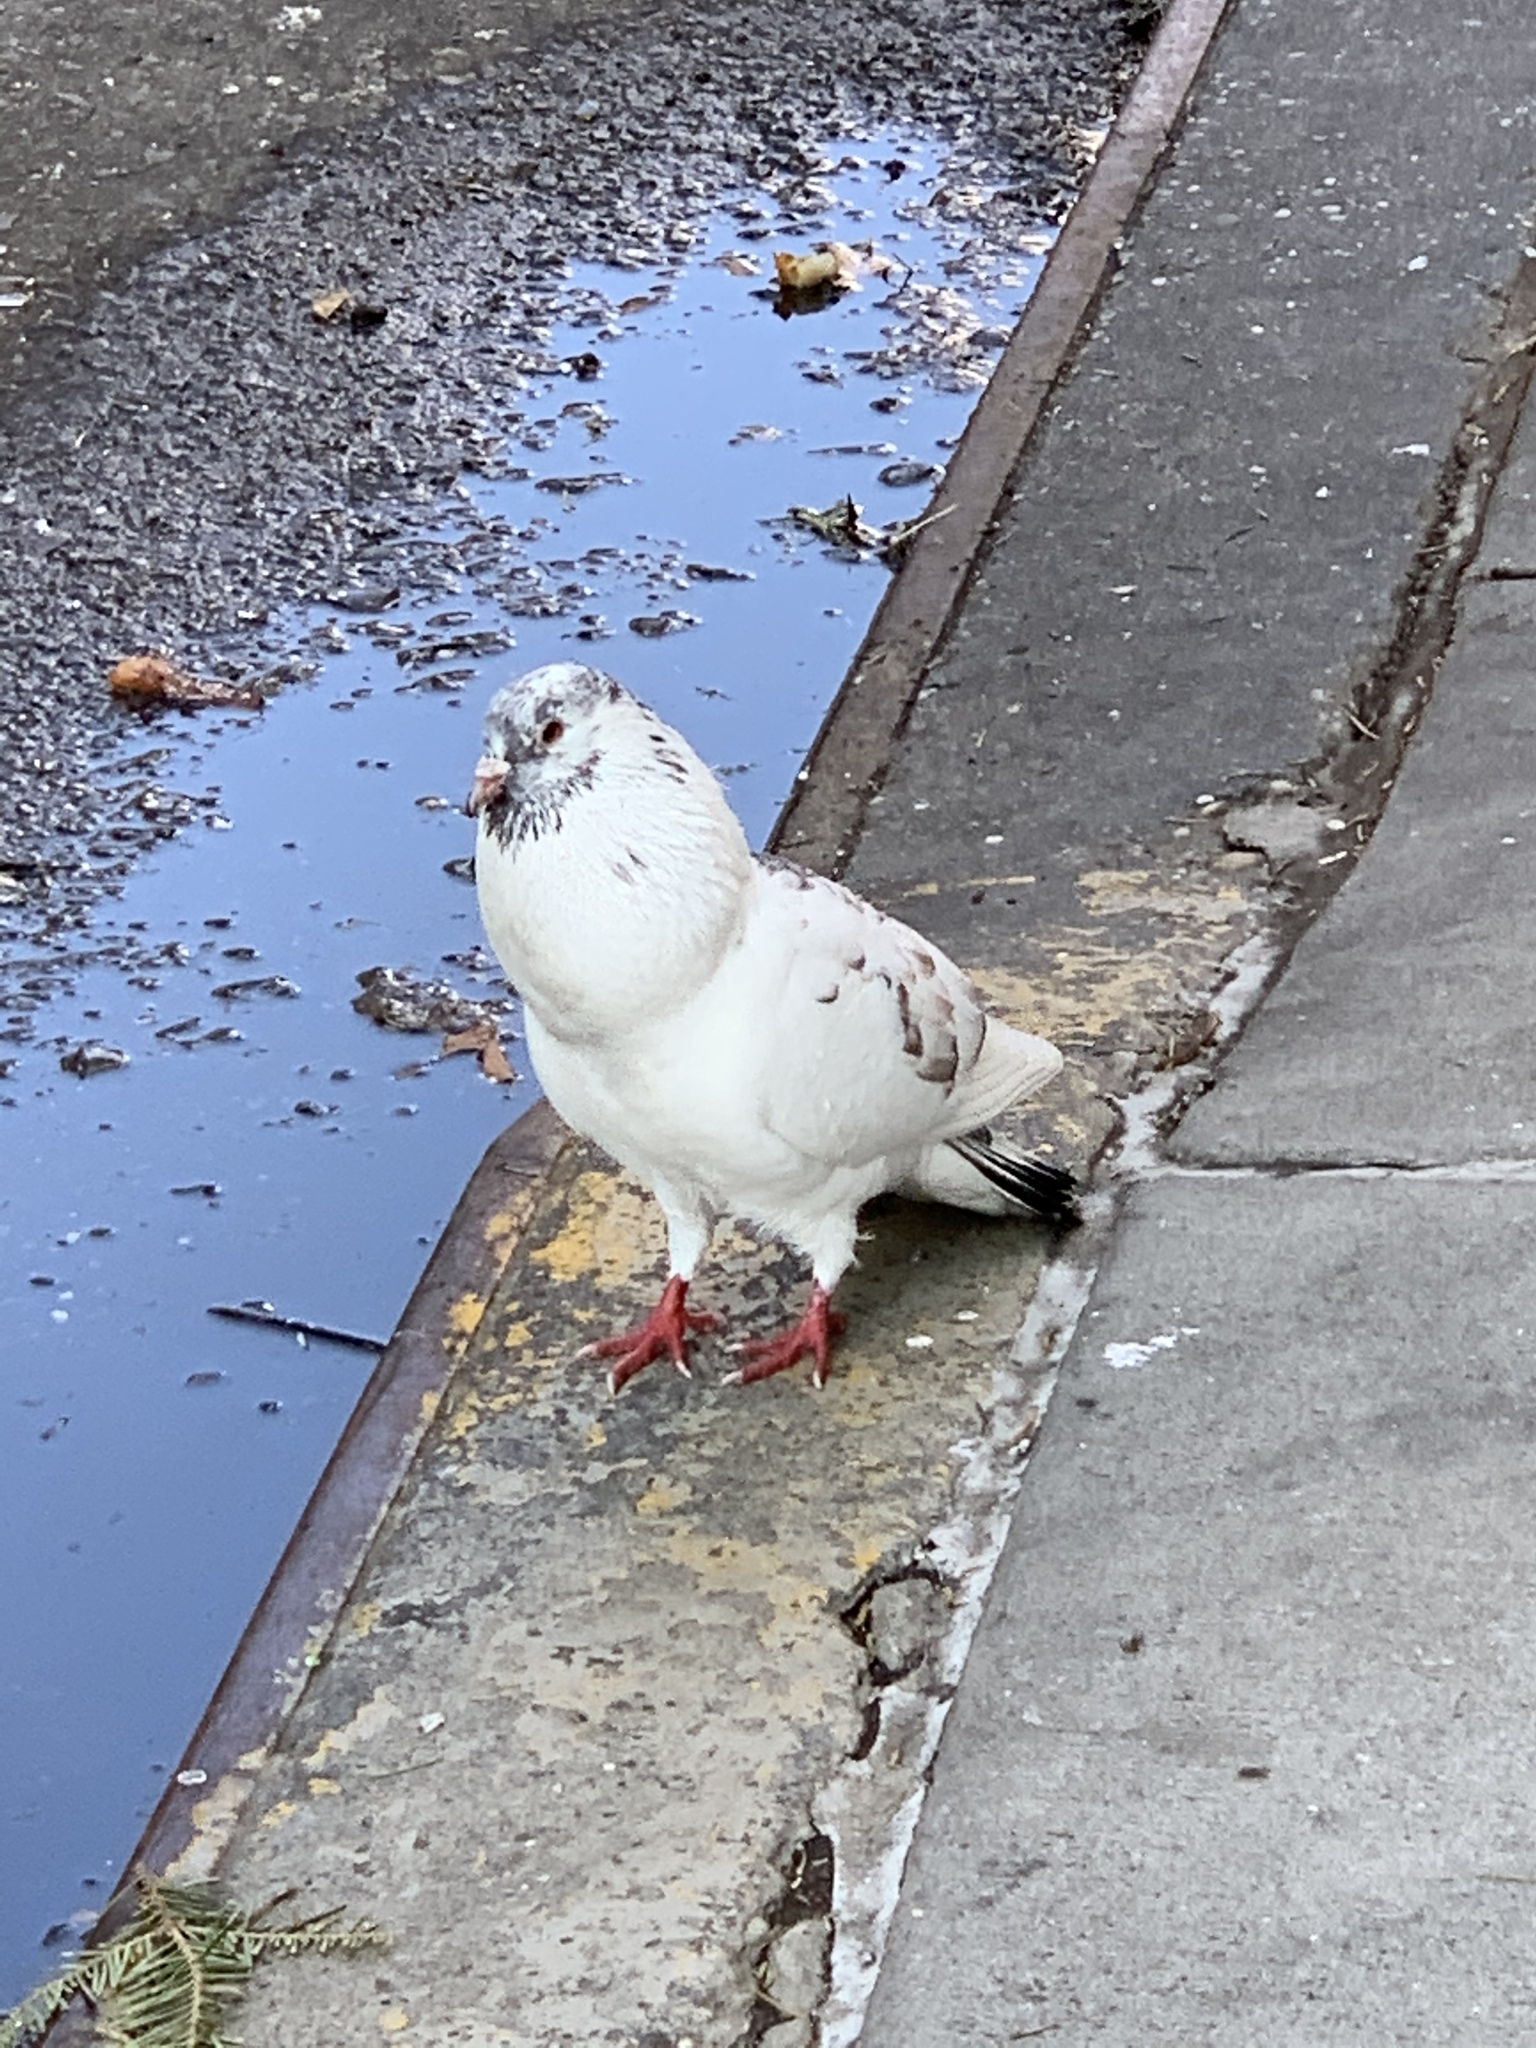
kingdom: Animalia
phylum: Chordata
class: Aves
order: Columbiformes
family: Columbidae
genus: Columba
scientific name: Columba livia
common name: Rock pigeon
